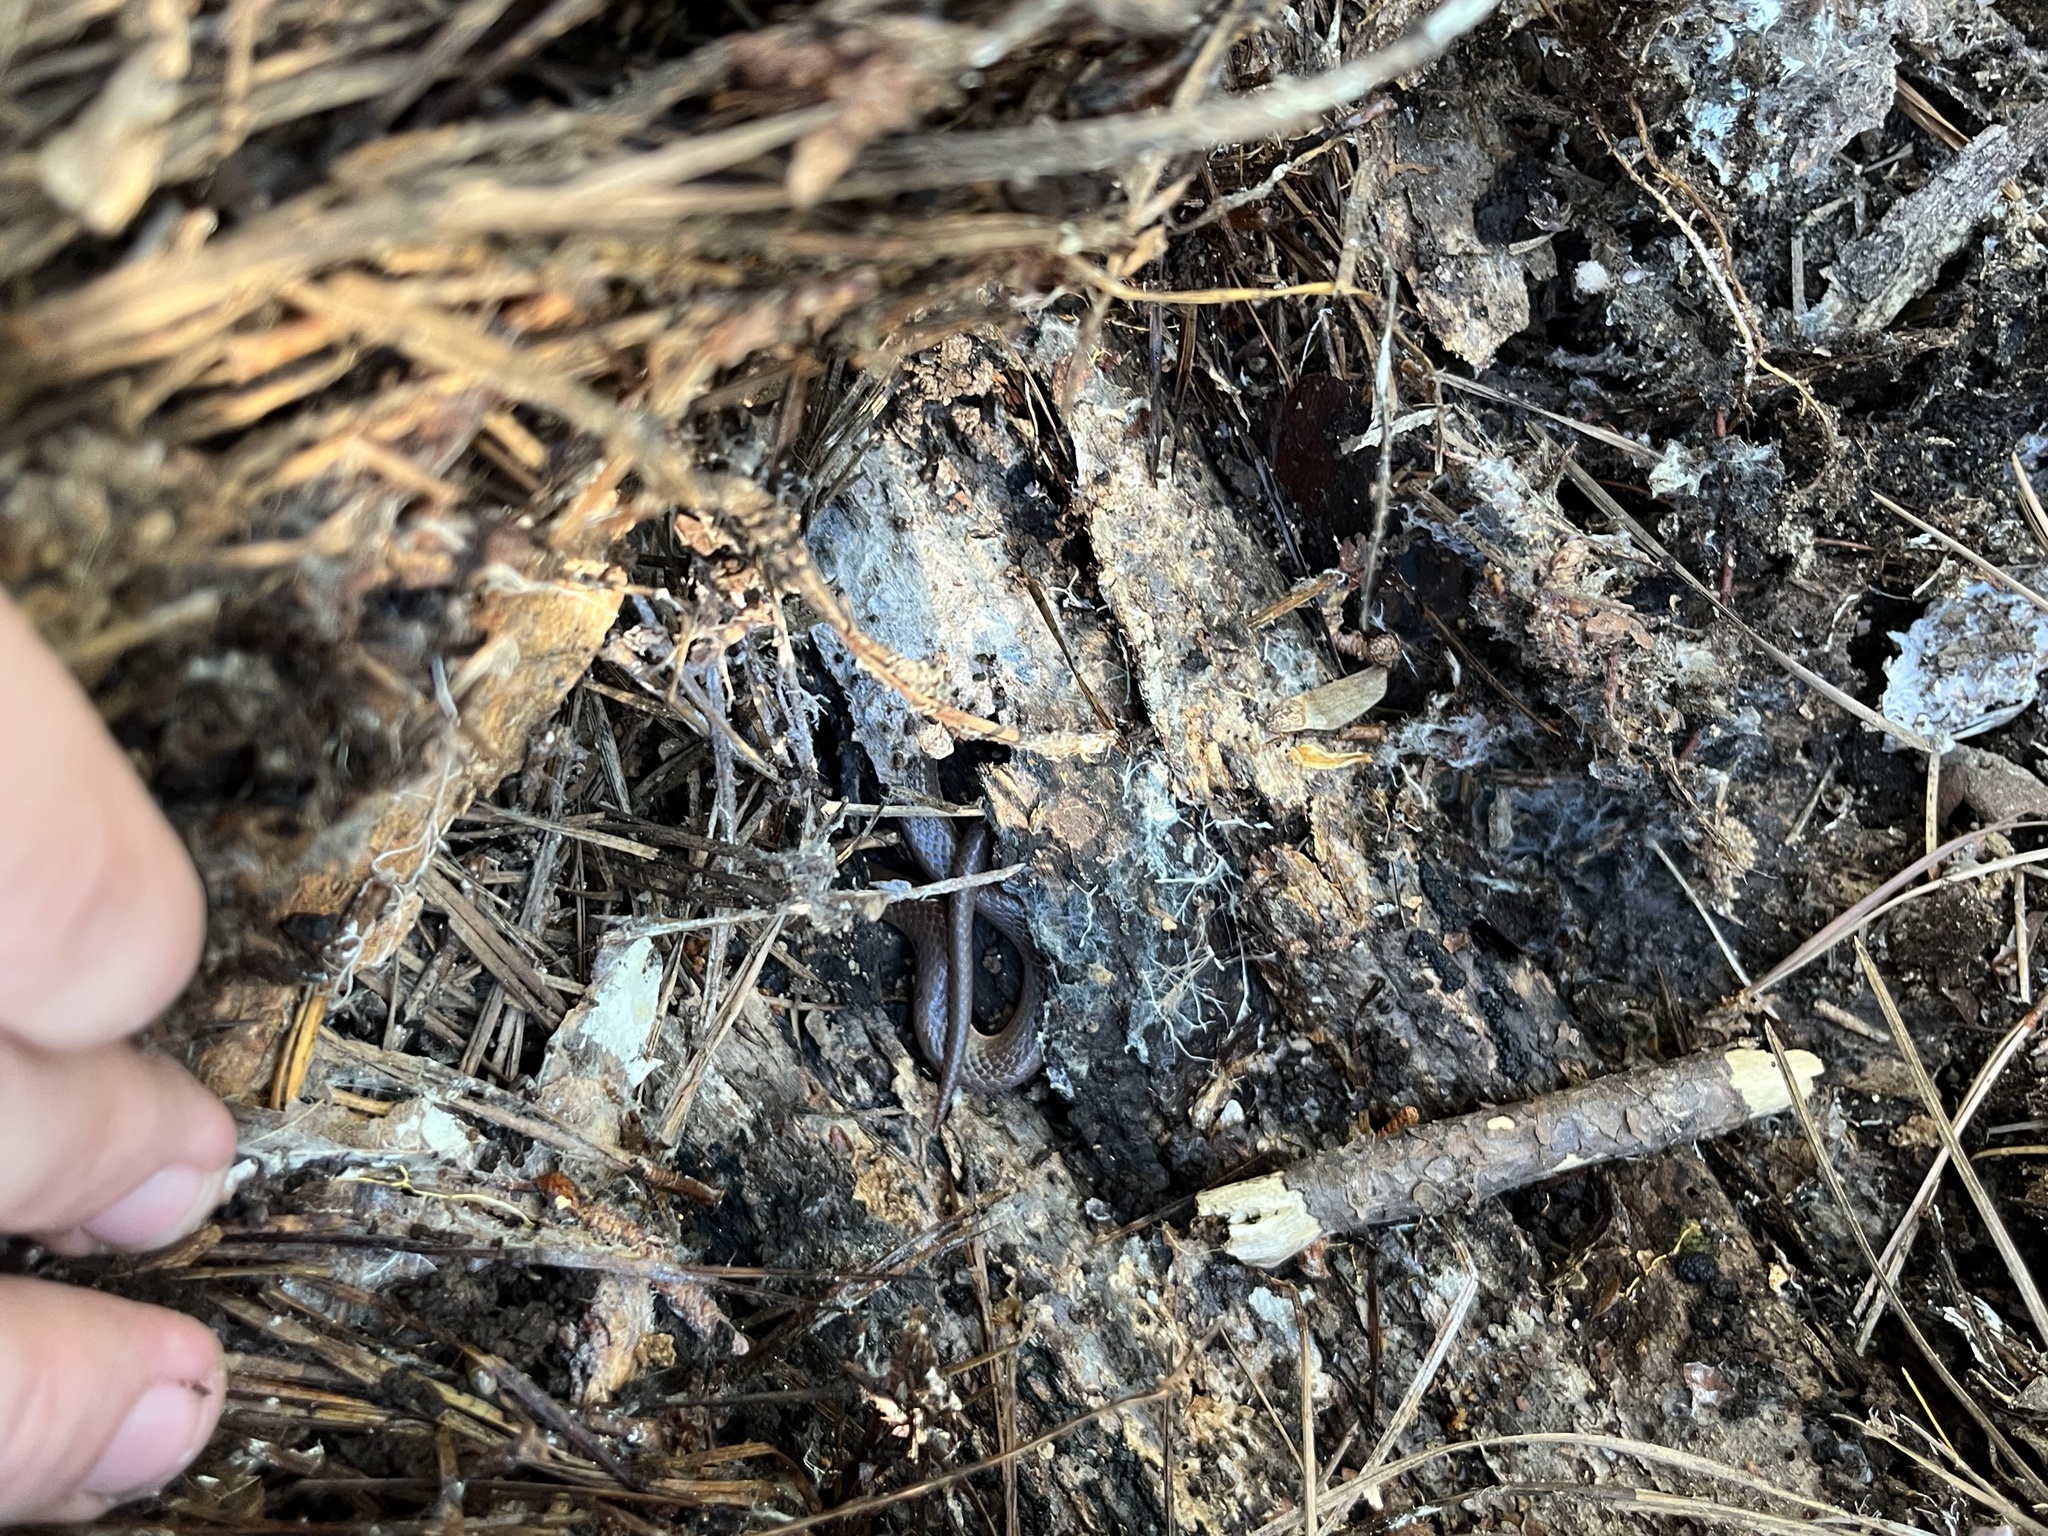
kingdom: Animalia
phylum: Chordata
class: Squamata
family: Colubridae
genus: Carphophis
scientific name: Carphophis amoenus
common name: Eastern worm snake
